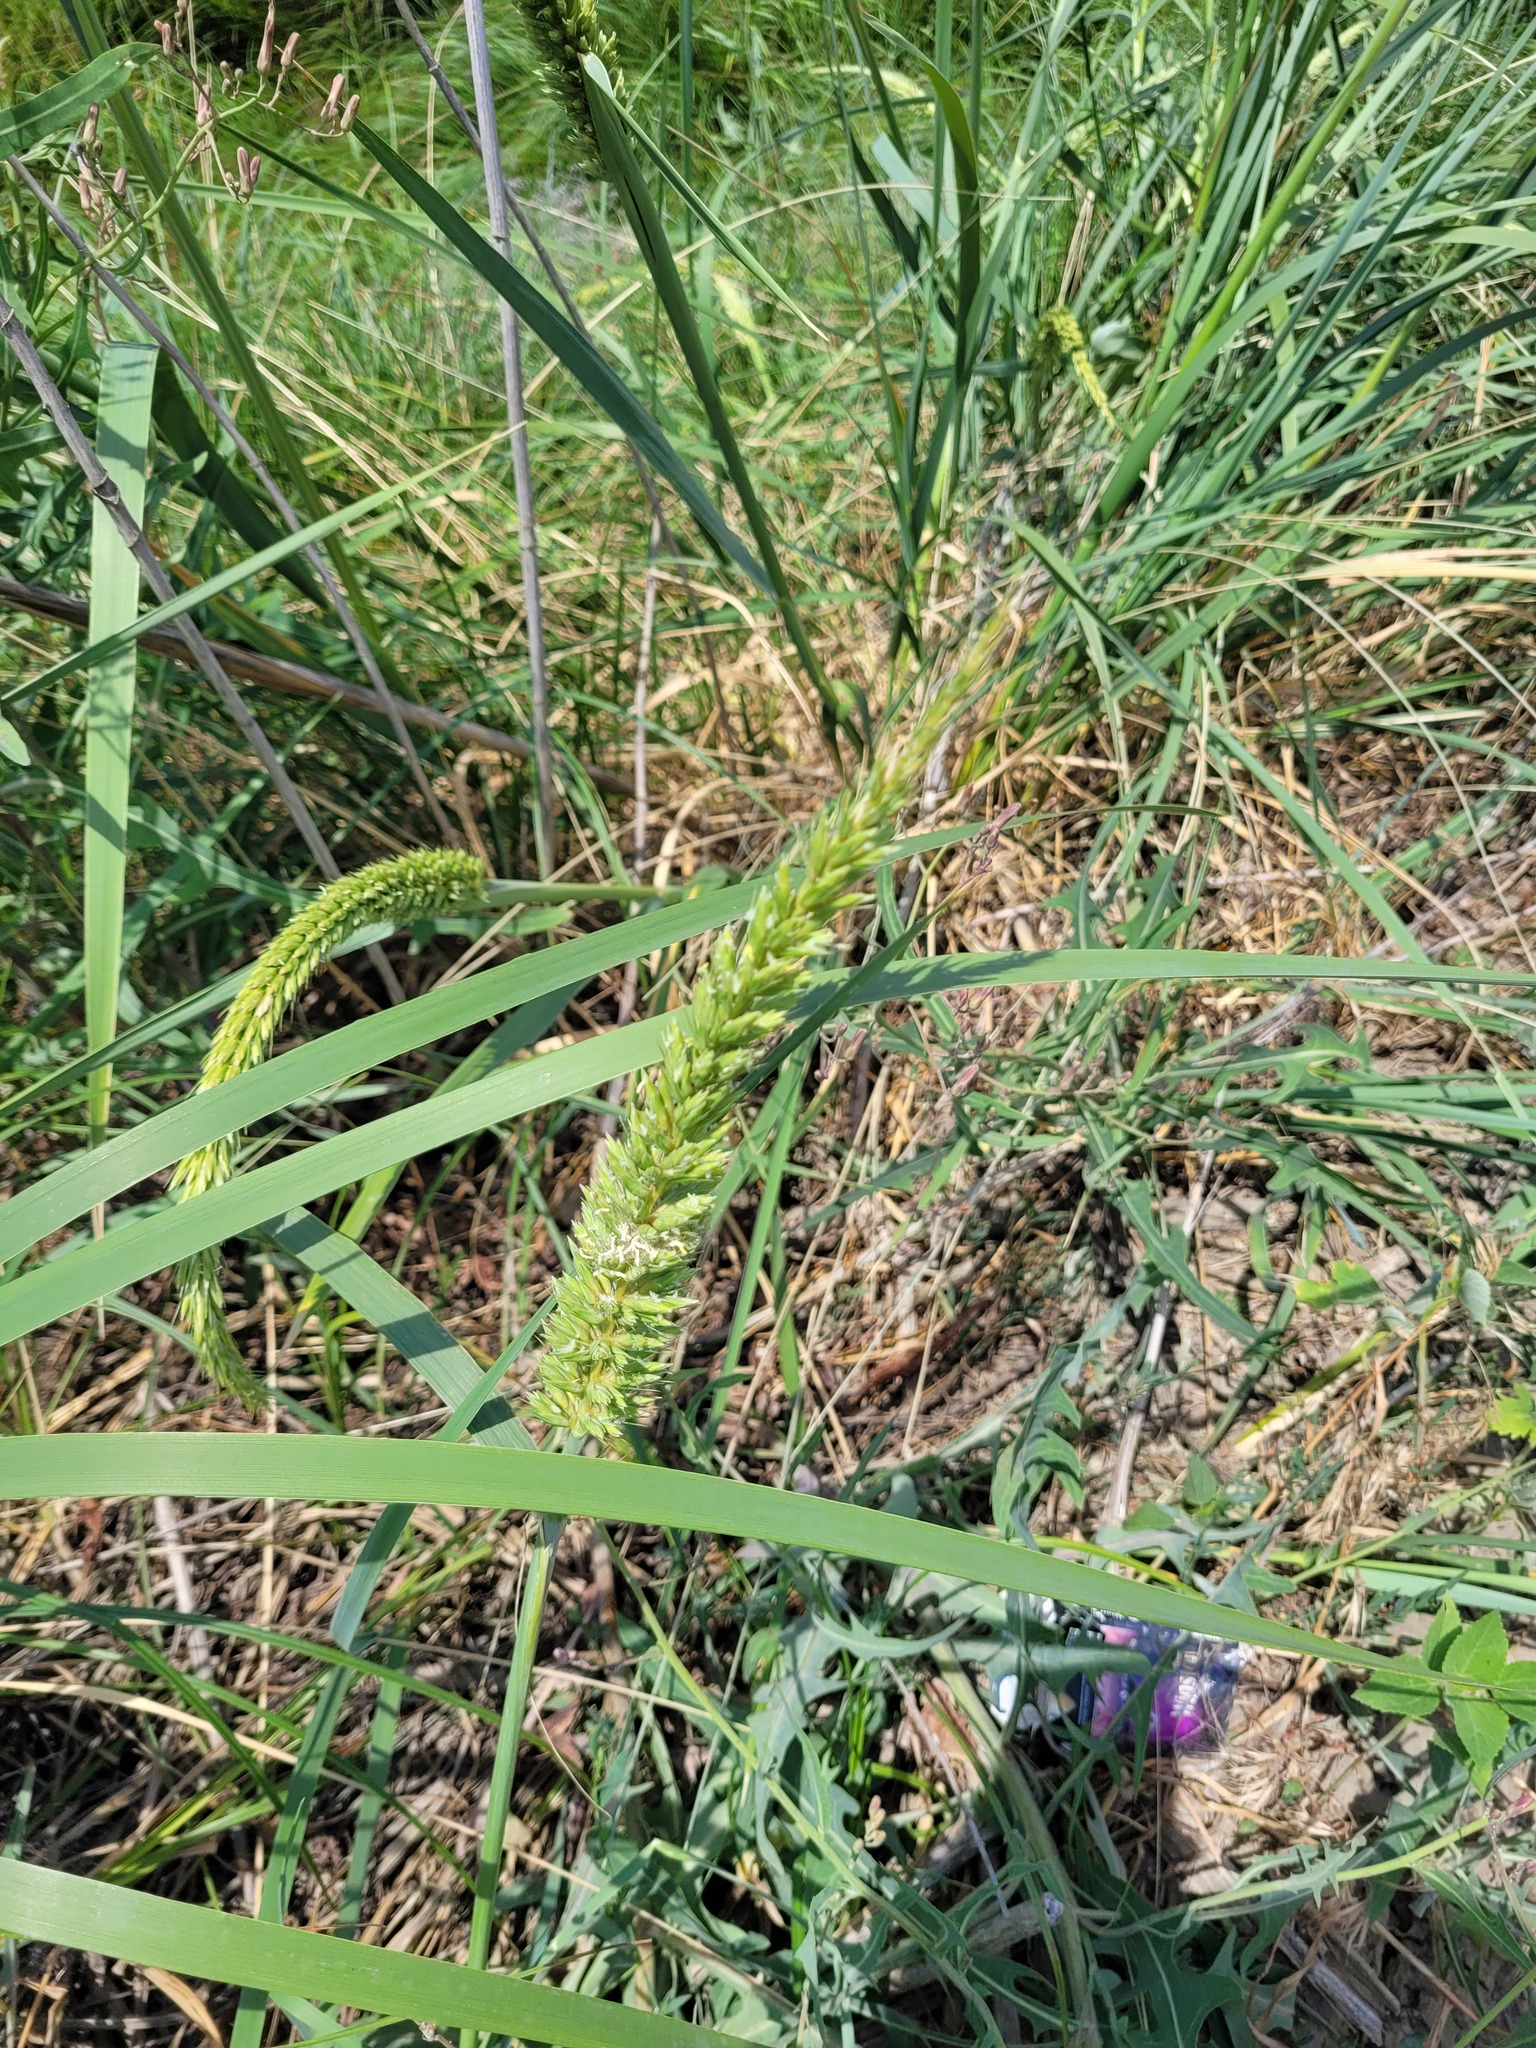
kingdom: Plantae
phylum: Tracheophyta
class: Liliopsida
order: Poales
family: Poaceae
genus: Leymus
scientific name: Leymus racemosus
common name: Mammoth wildrye
